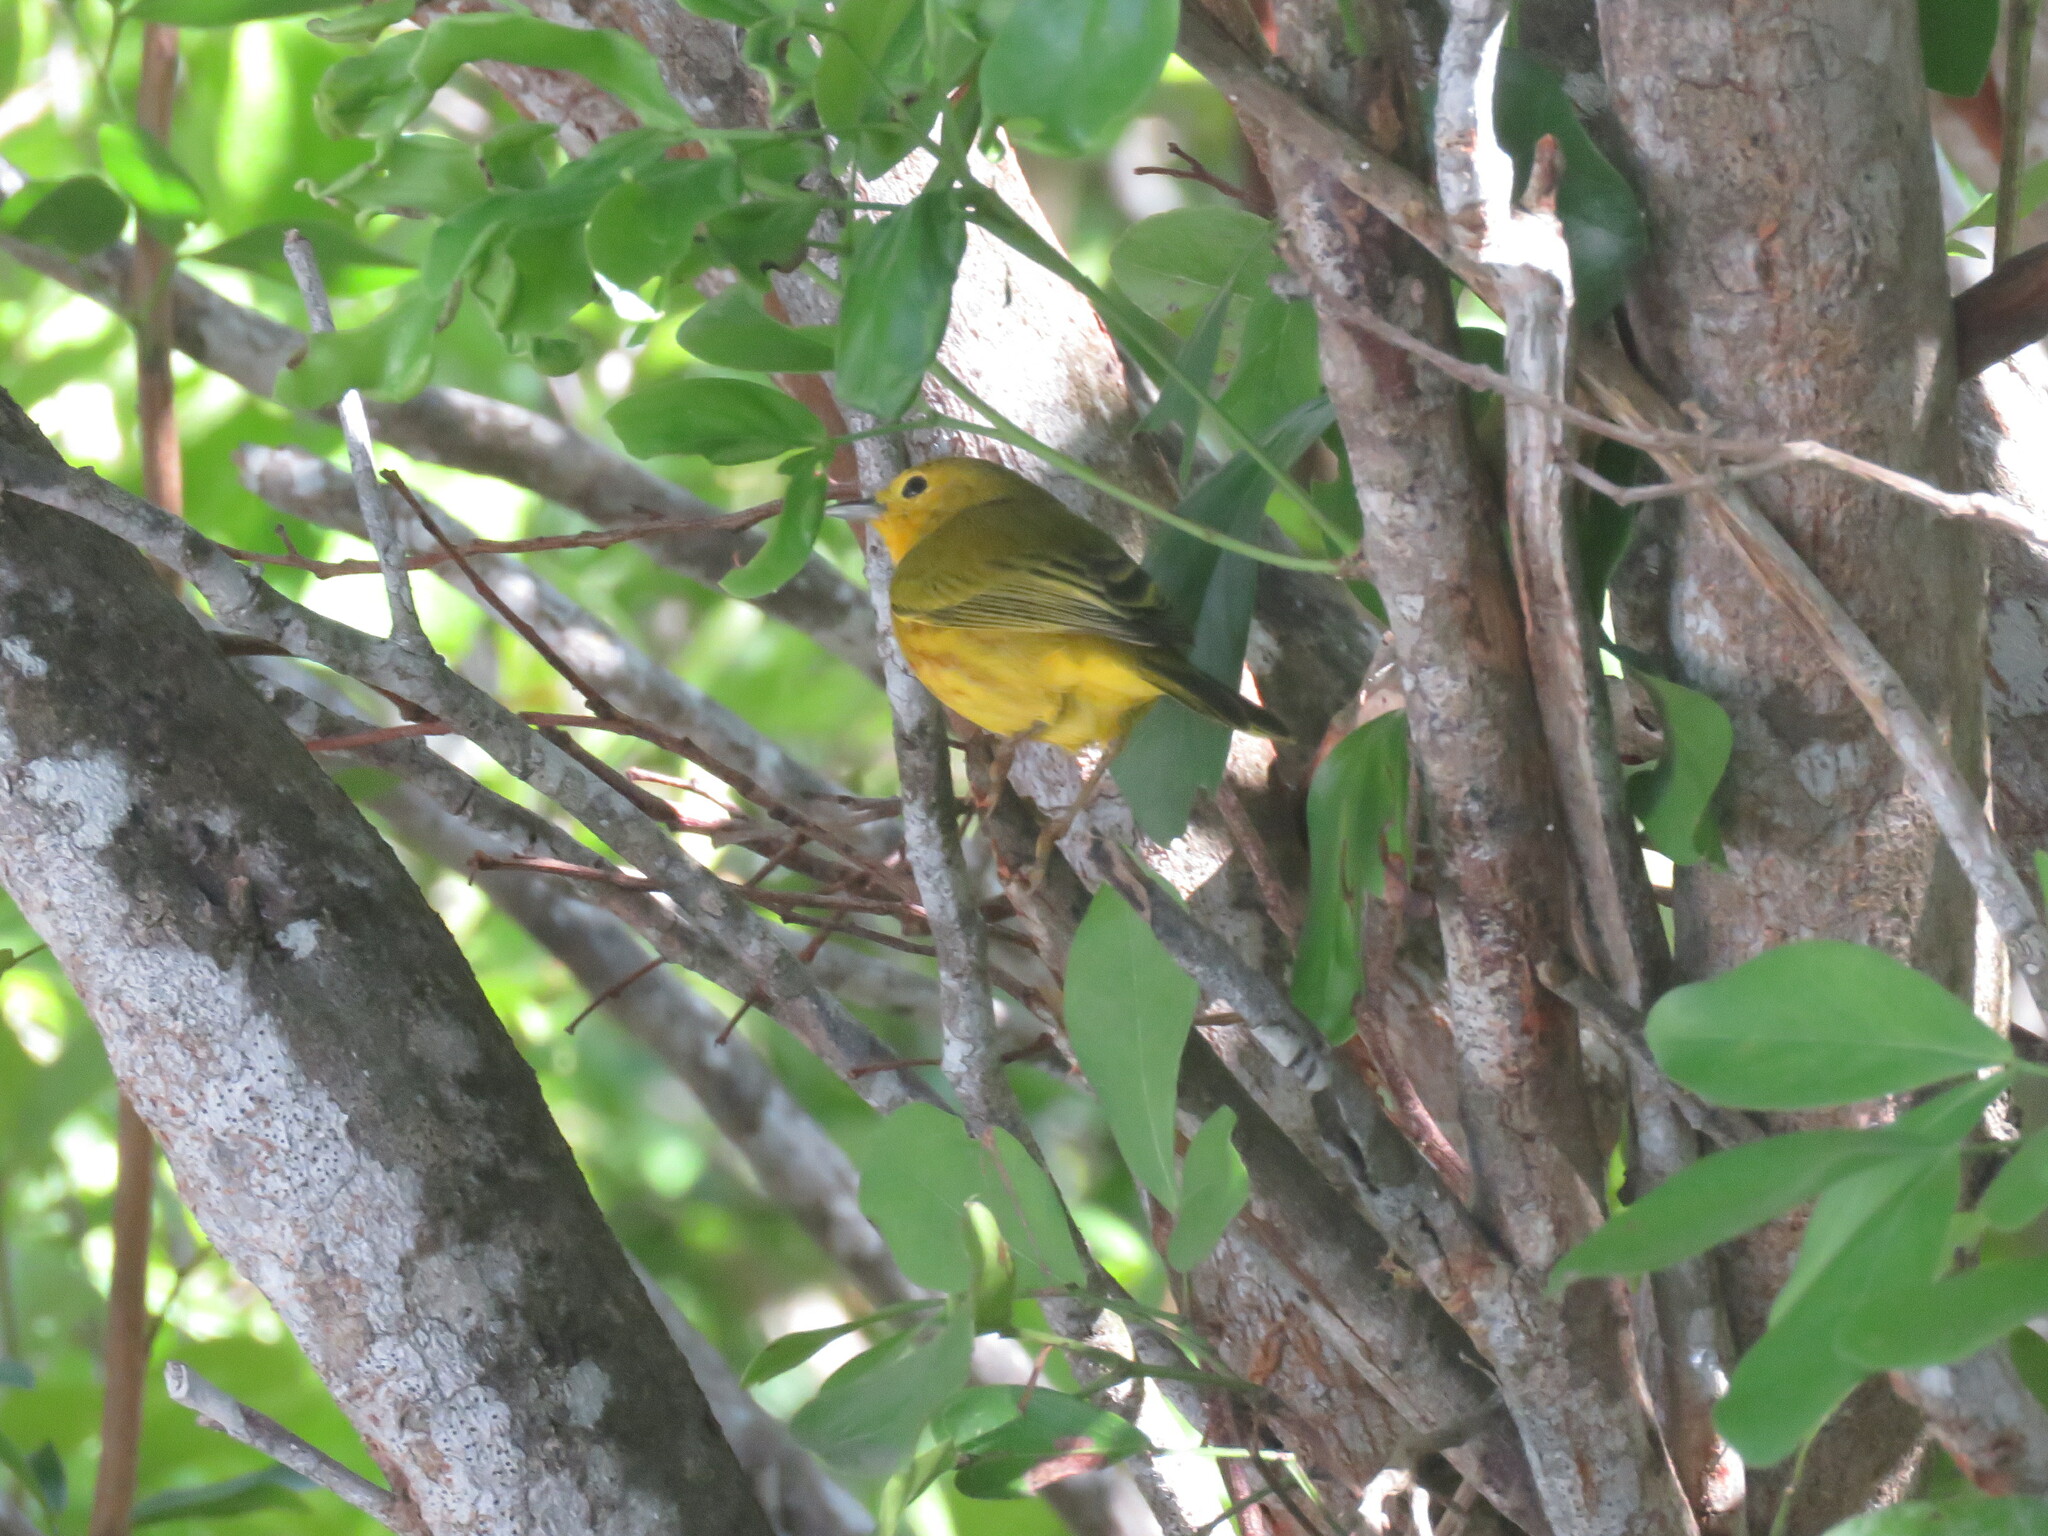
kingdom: Animalia
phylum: Chordata
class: Aves
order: Passeriformes
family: Parulidae
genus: Setophaga
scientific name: Setophaga petechia
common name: Yellow warbler
